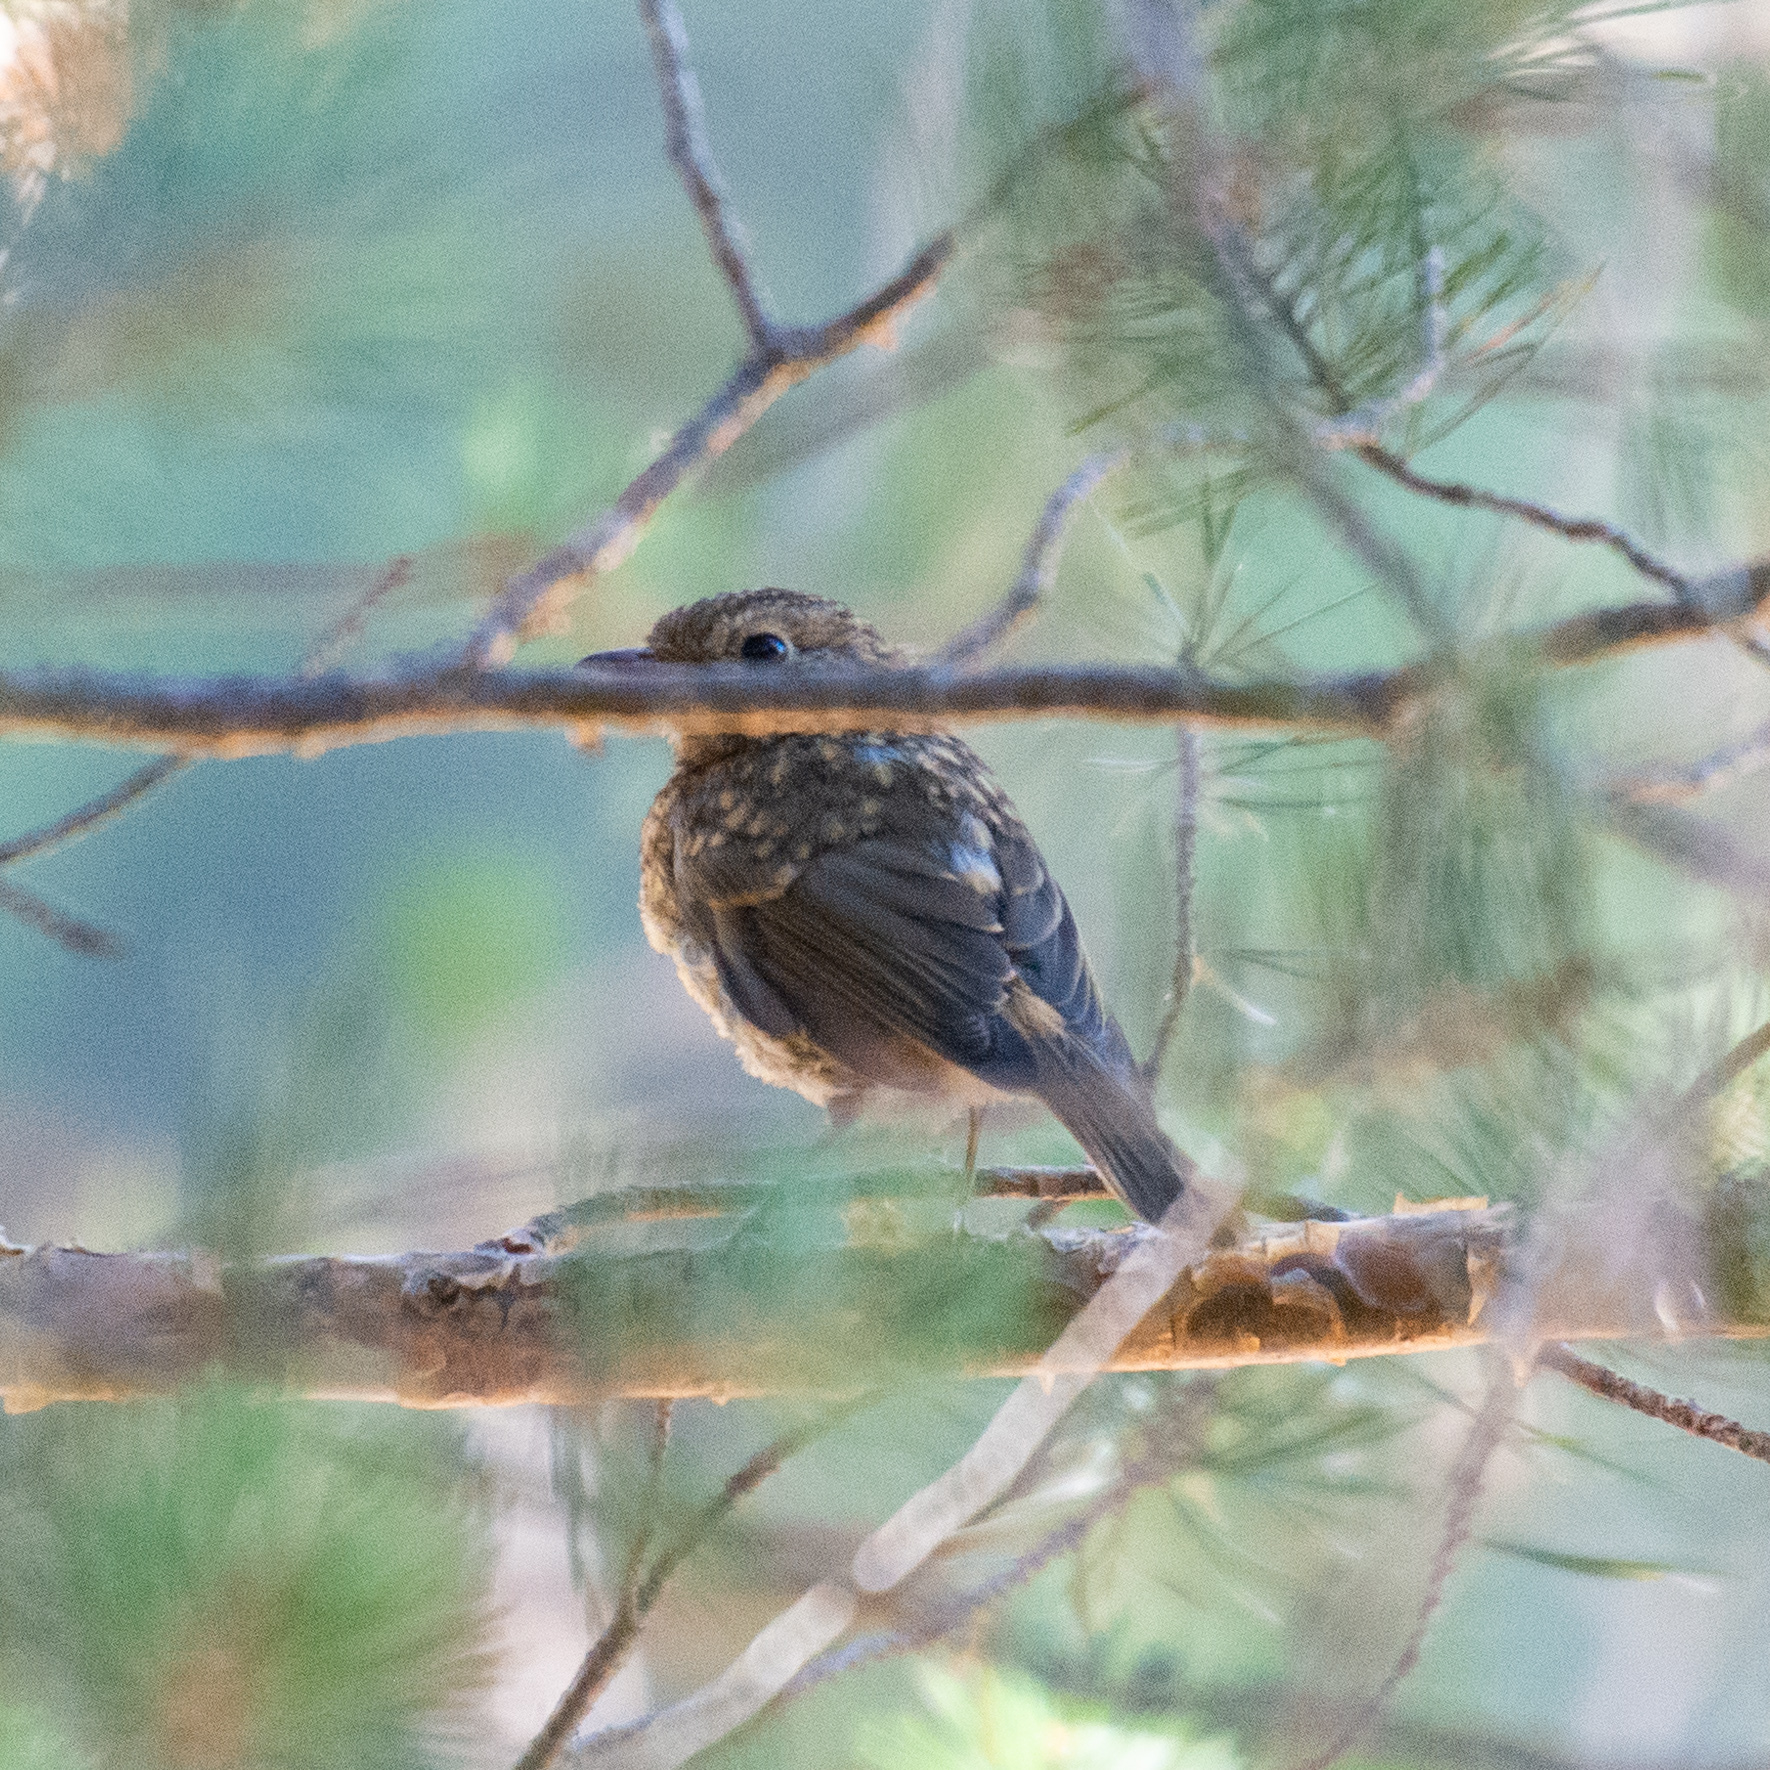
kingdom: Animalia
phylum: Chordata
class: Aves
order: Passeriformes
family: Muscicapidae
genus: Erithacus
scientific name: Erithacus rubecula
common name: European robin
